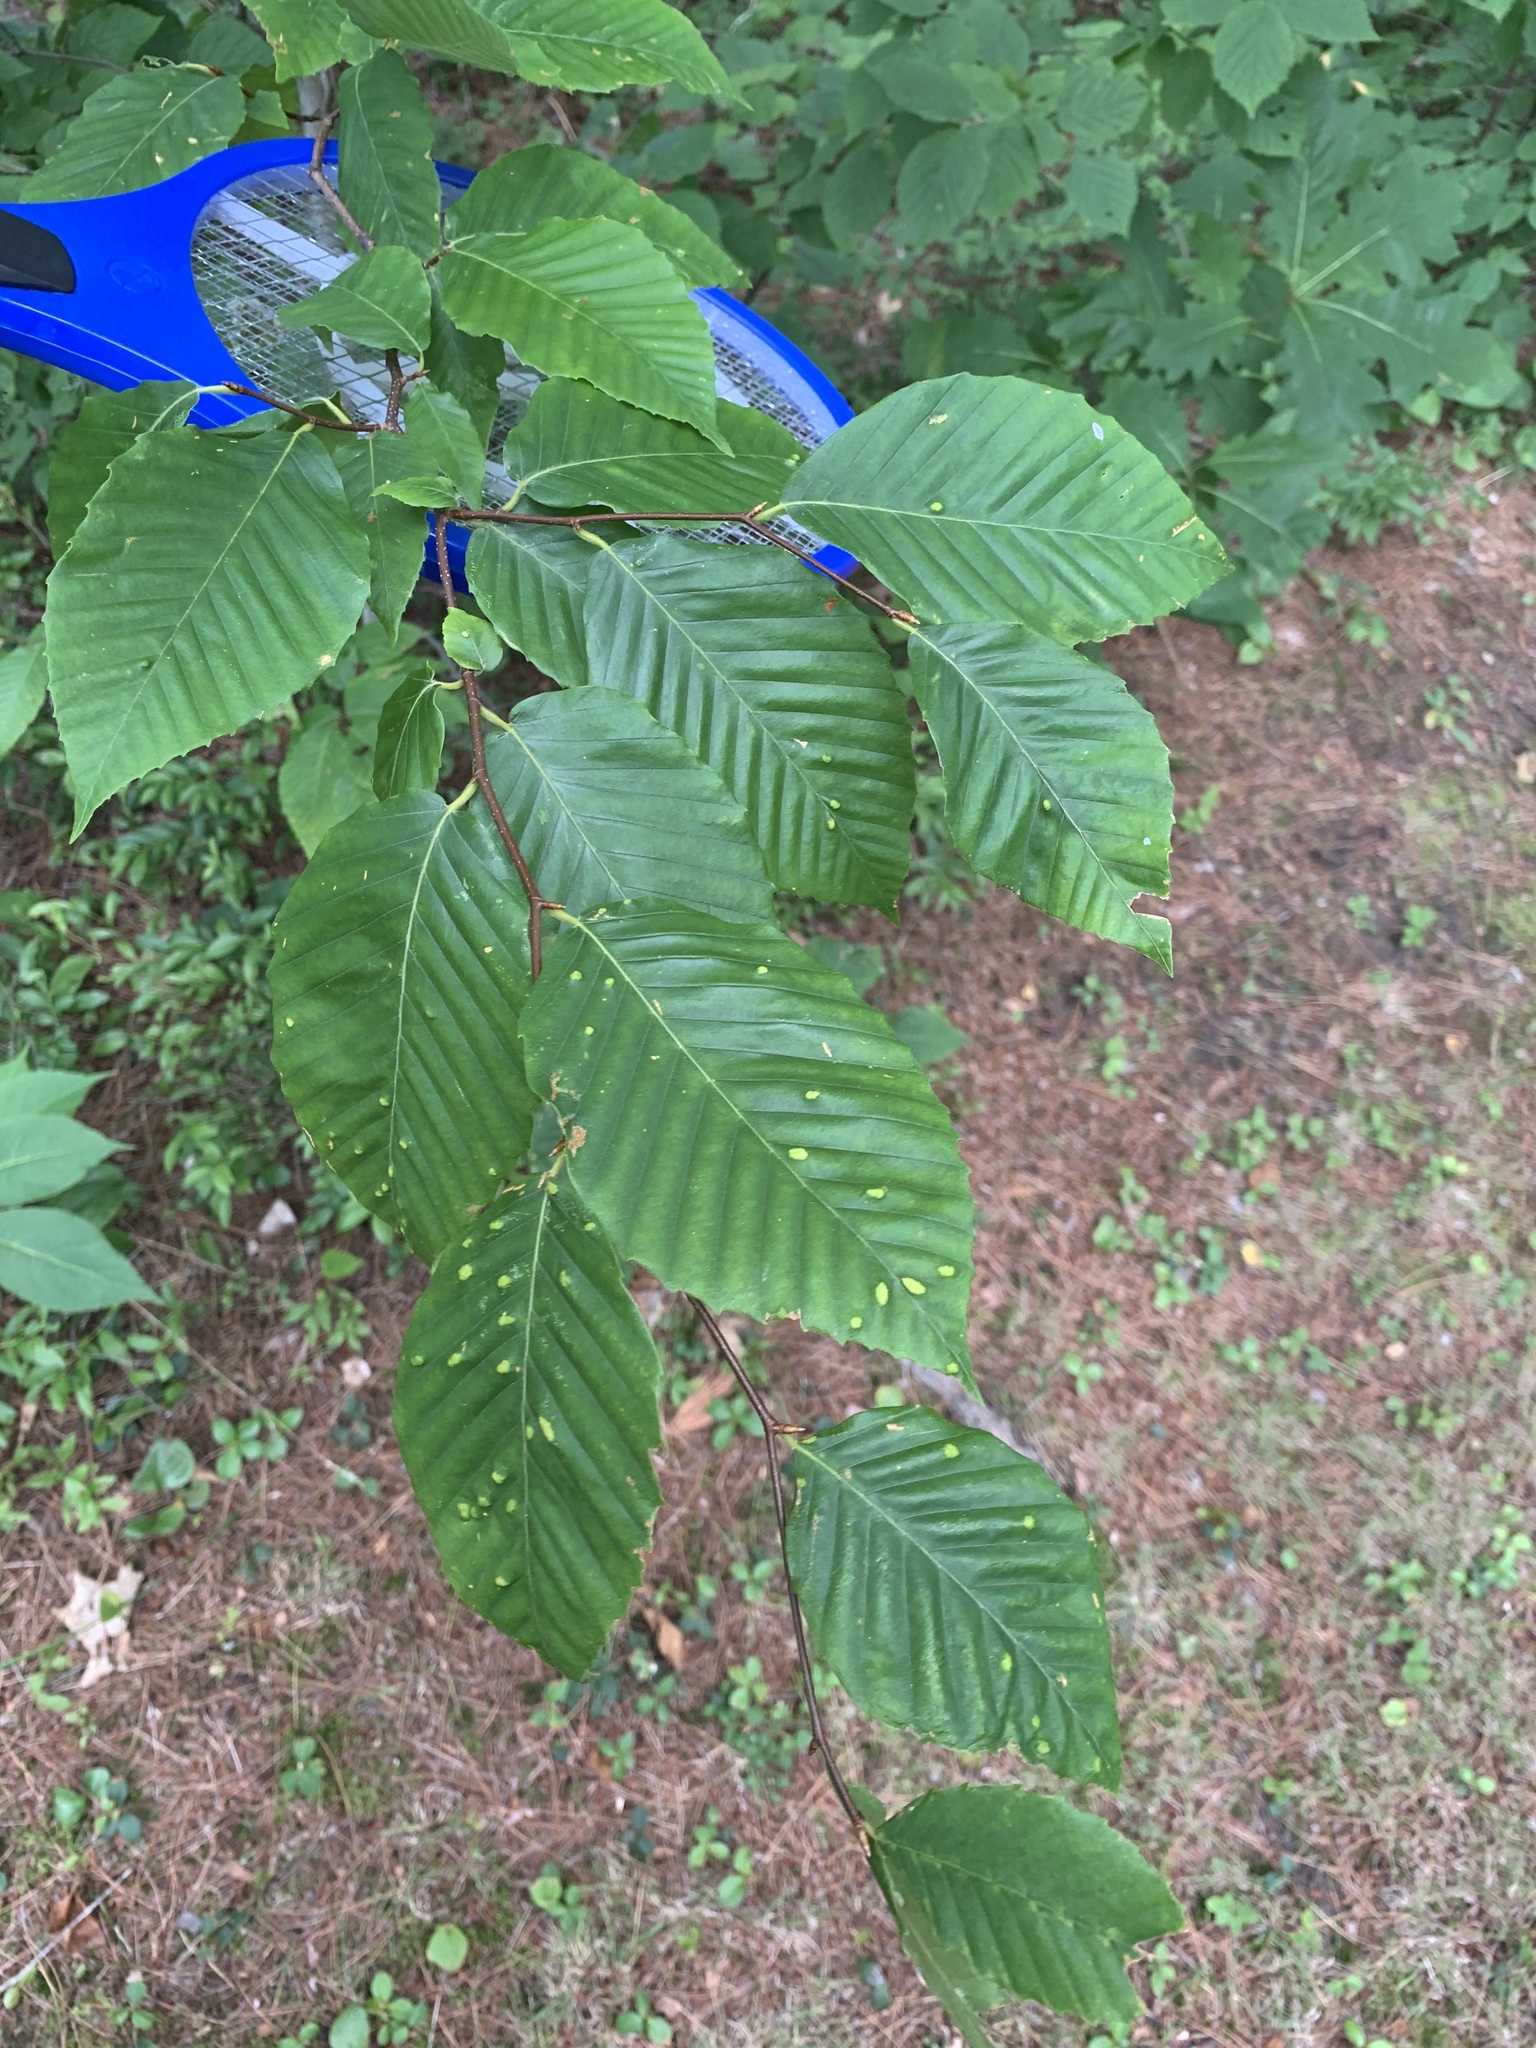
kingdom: Plantae
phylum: Tracheophyta
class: Magnoliopsida
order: Fagales
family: Fagaceae
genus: Fagus
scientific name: Fagus grandifolia
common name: American beech
